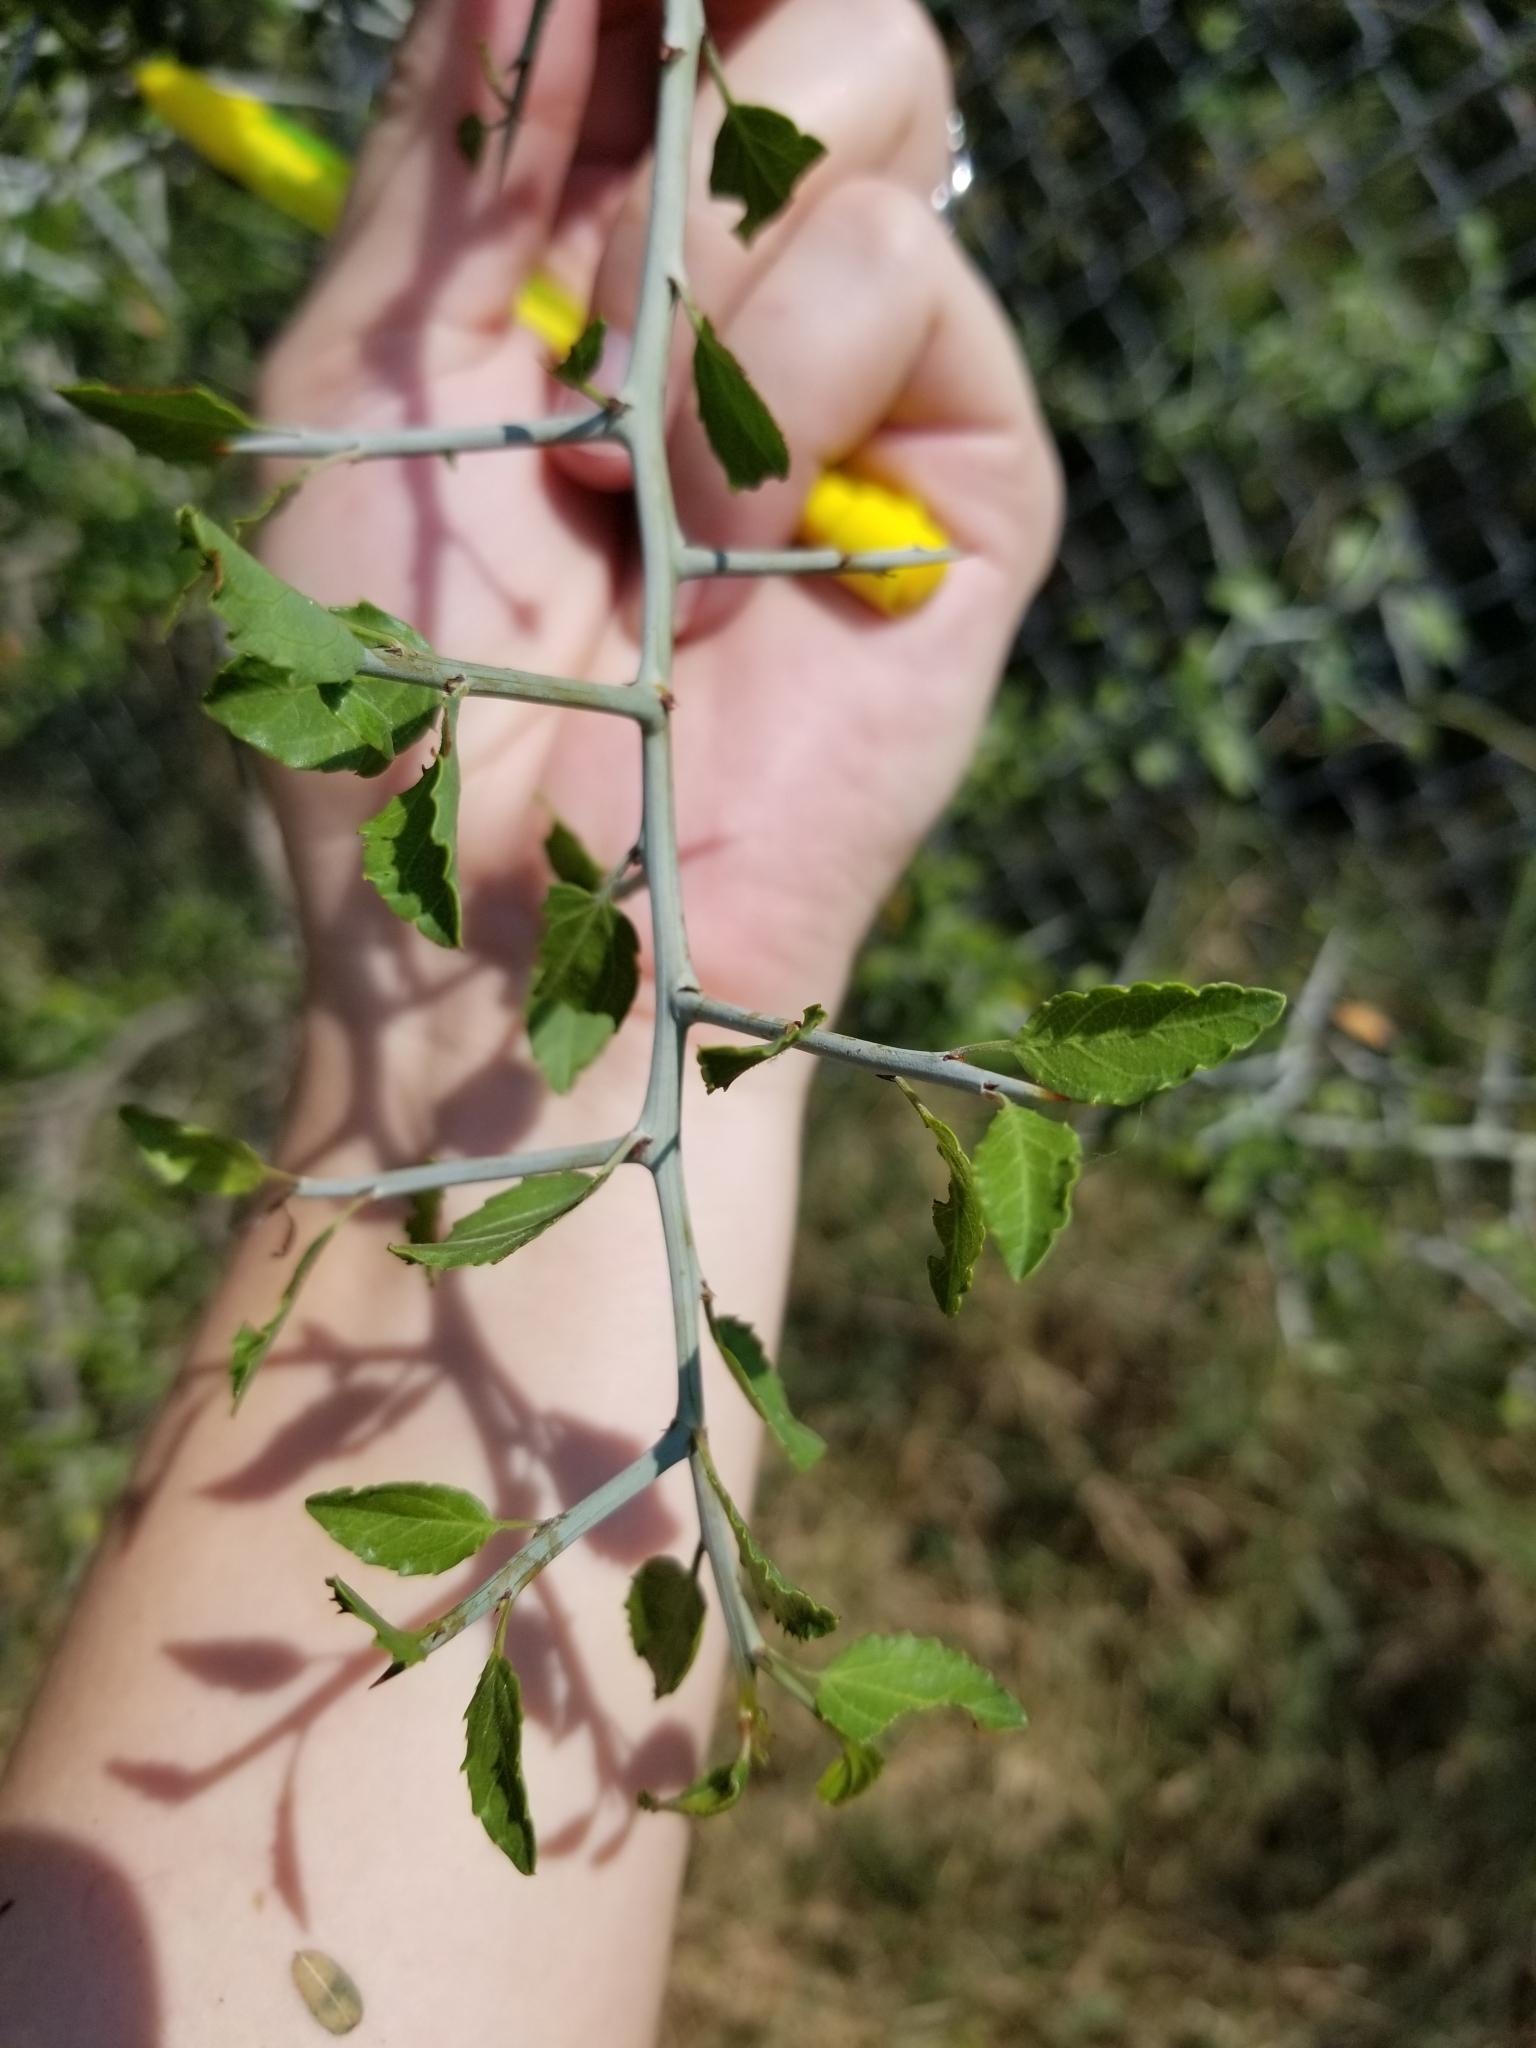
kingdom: Plantae
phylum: Tracheophyta
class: Magnoliopsida
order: Rosales
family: Rhamnaceae
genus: Sarcomphalus
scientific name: Sarcomphalus obtusifolius
